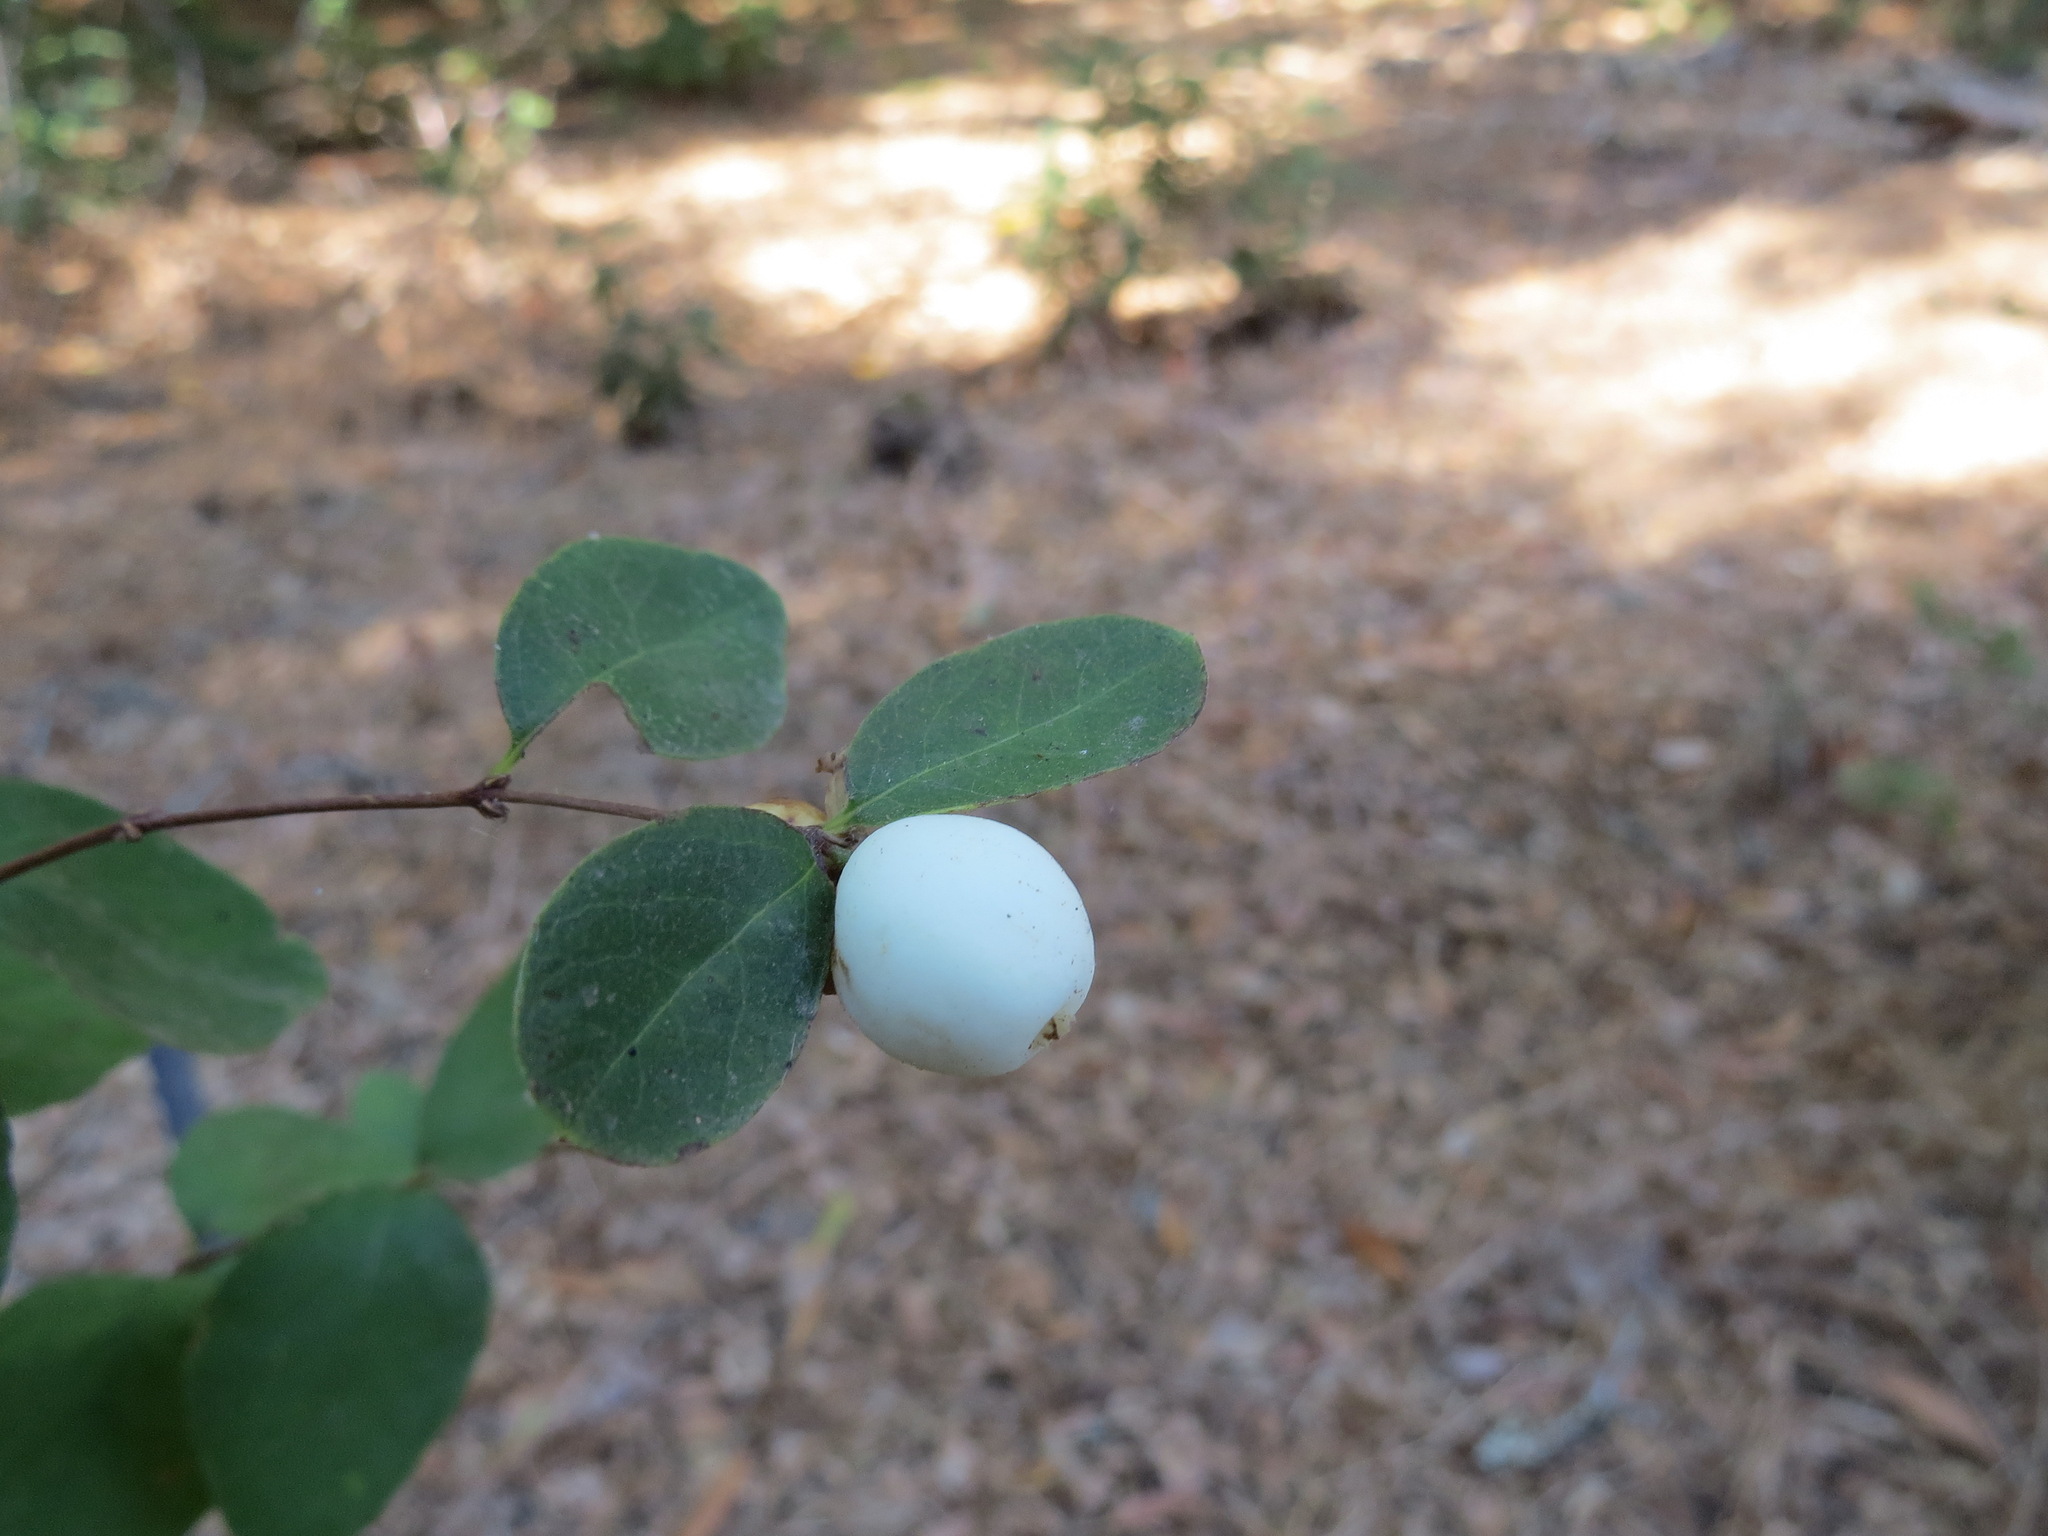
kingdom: Plantae
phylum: Tracheophyta
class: Magnoliopsida
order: Dipsacales
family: Caprifoliaceae
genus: Symphoricarpos
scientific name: Symphoricarpos albus
